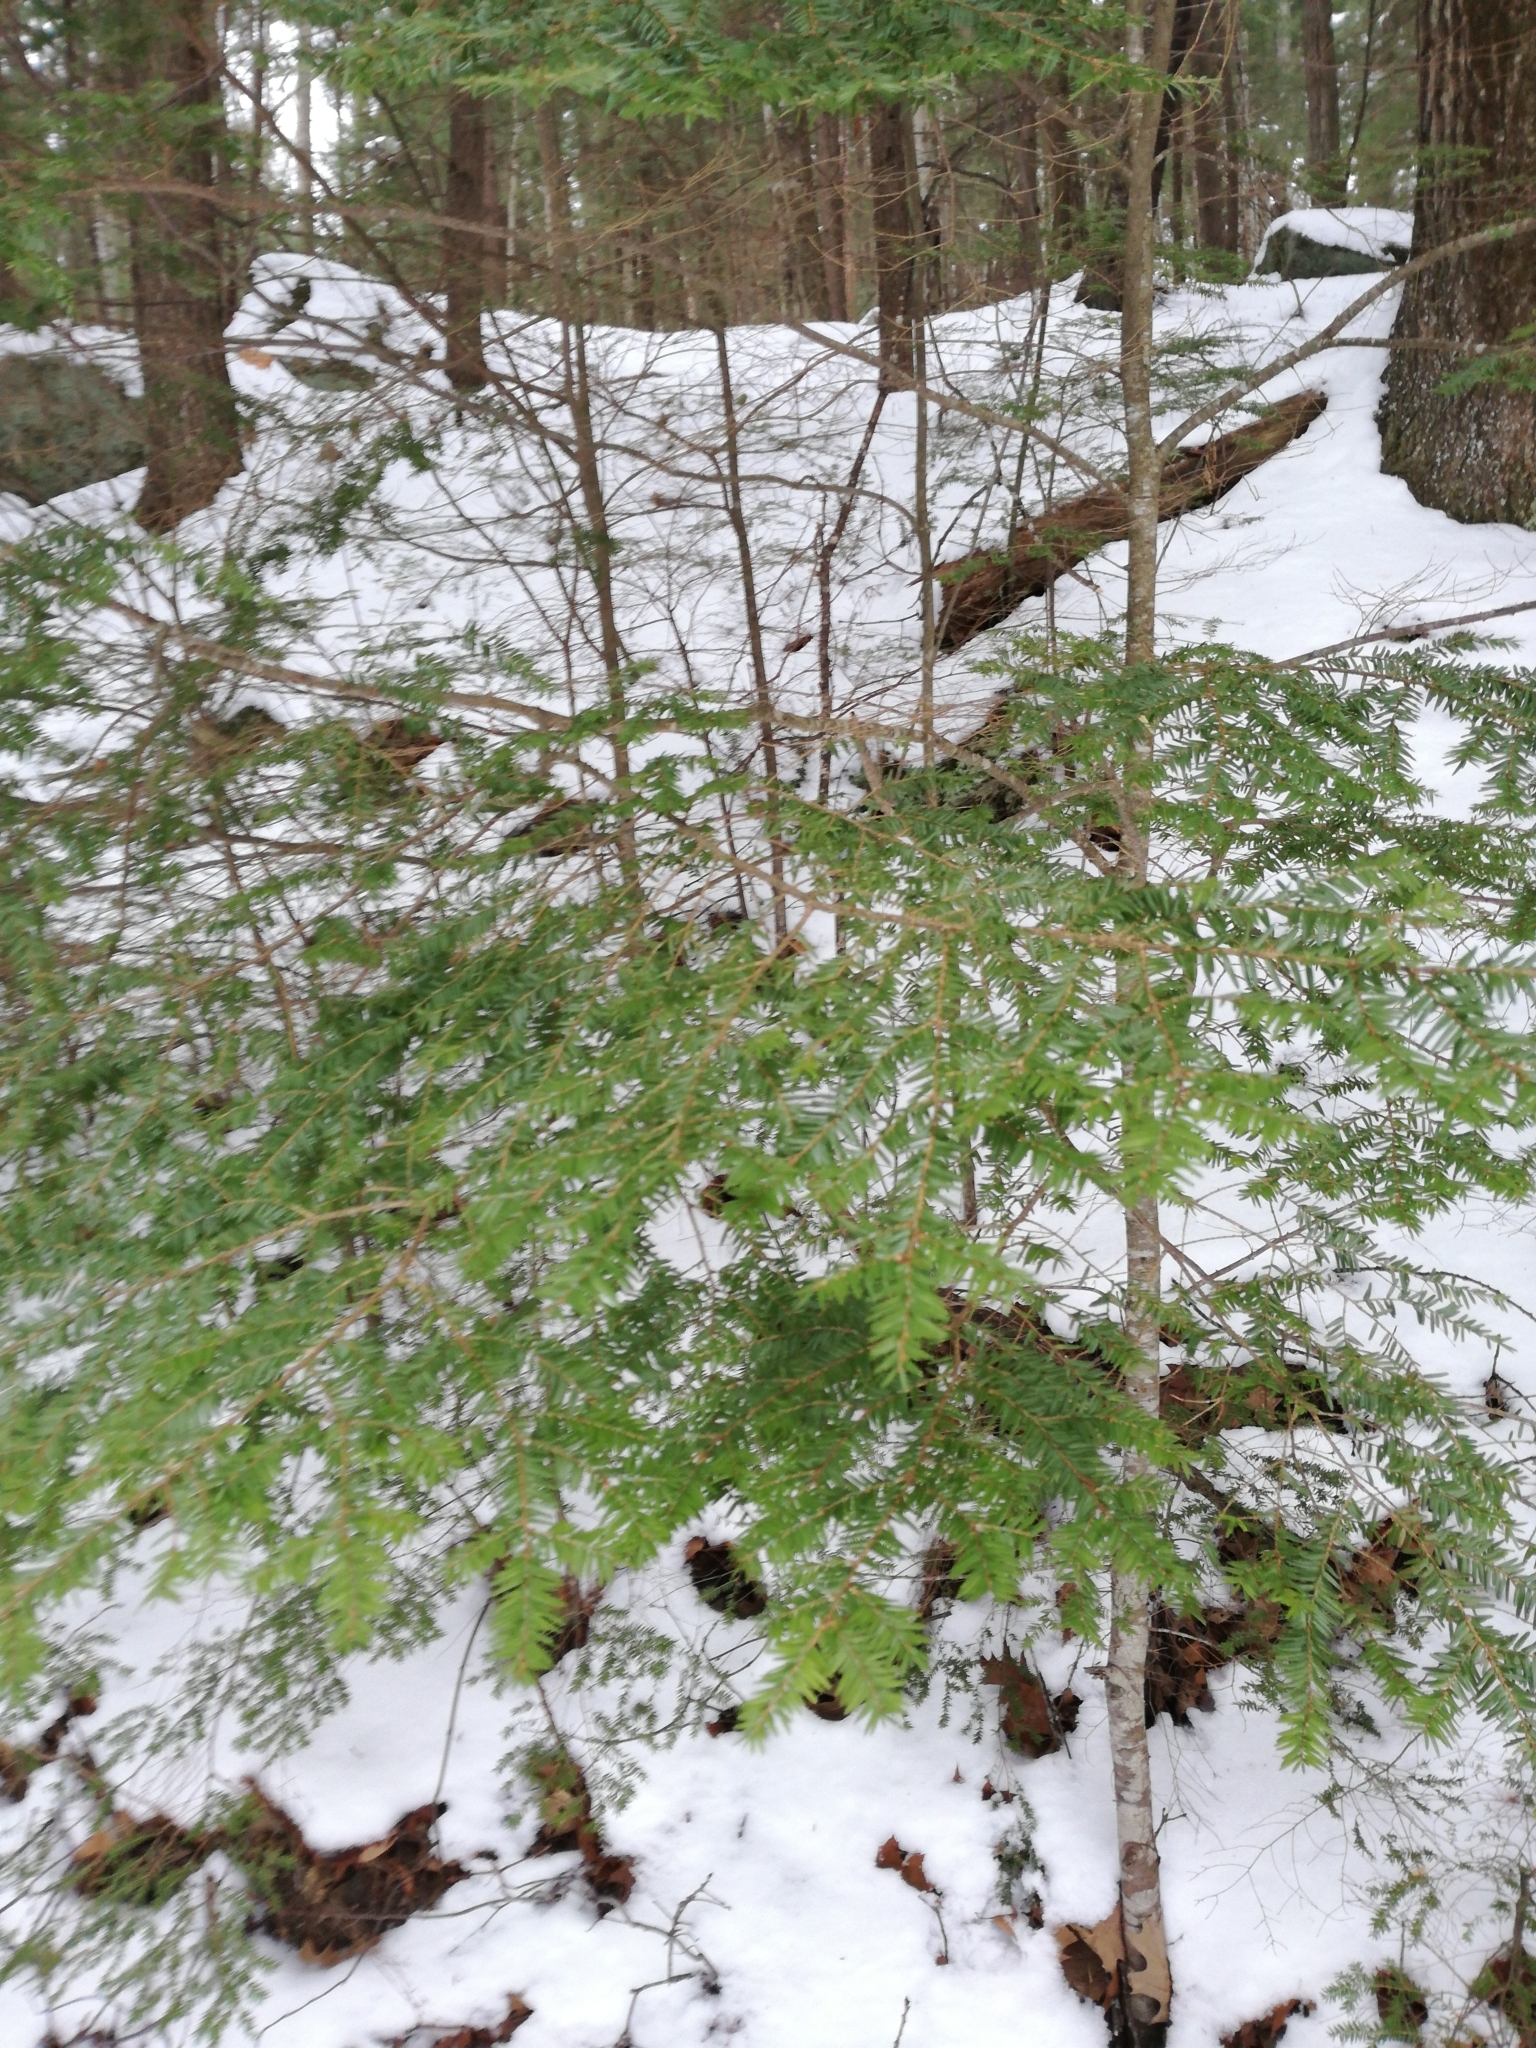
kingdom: Plantae
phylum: Tracheophyta
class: Pinopsida
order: Pinales
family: Pinaceae
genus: Tsuga
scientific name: Tsuga canadensis
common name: Eastern hemlock
